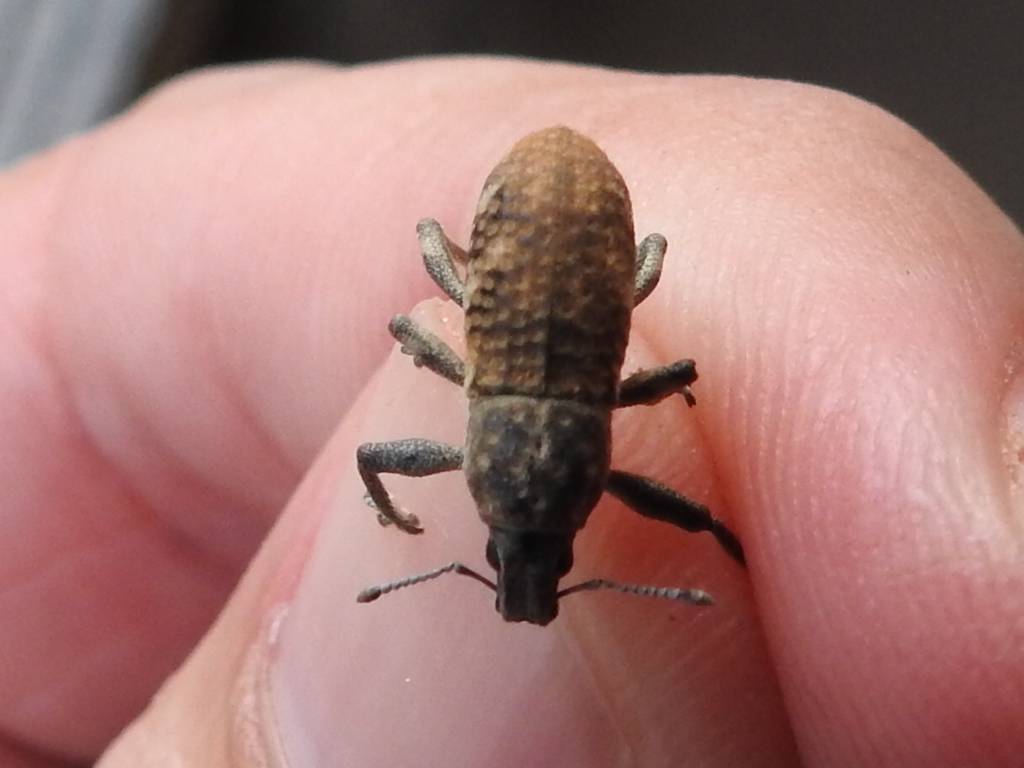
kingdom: Animalia
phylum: Arthropoda
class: Insecta
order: Coleoptera
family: Curculionidae
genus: Epicaerus
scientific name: Epicaerus mexicanus
